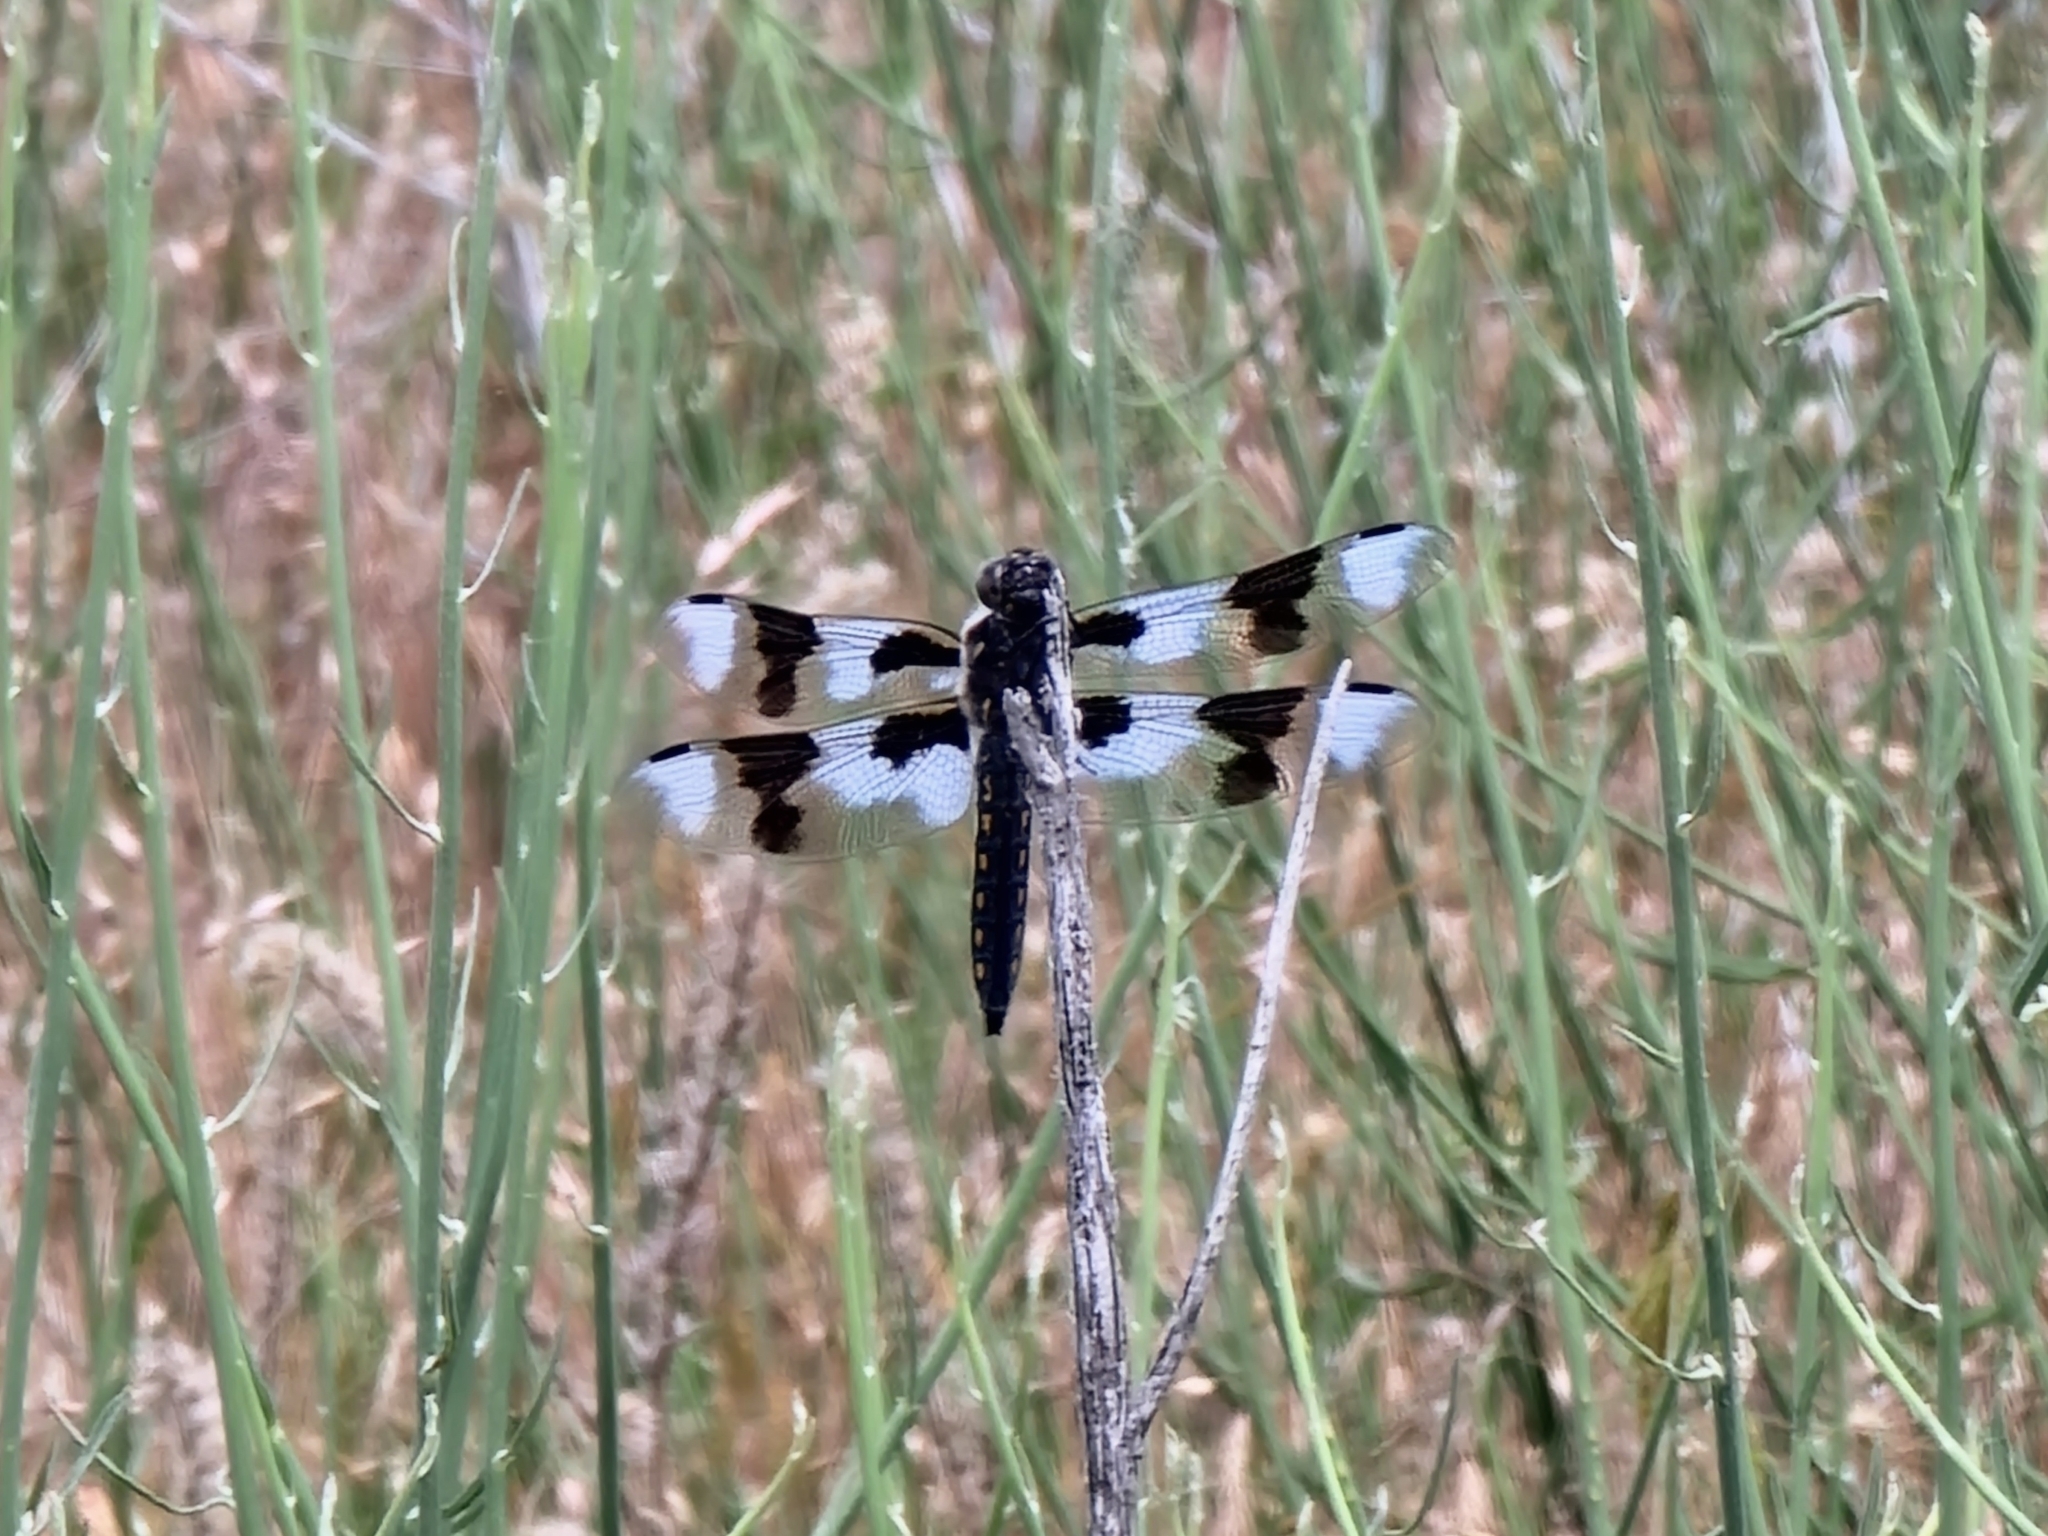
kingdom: Animalia
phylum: Arthropoda
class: Insecta
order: Odonata
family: Libellulidae
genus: Libellula
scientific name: Libellula forensis
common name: Eight-spotted skimmer
